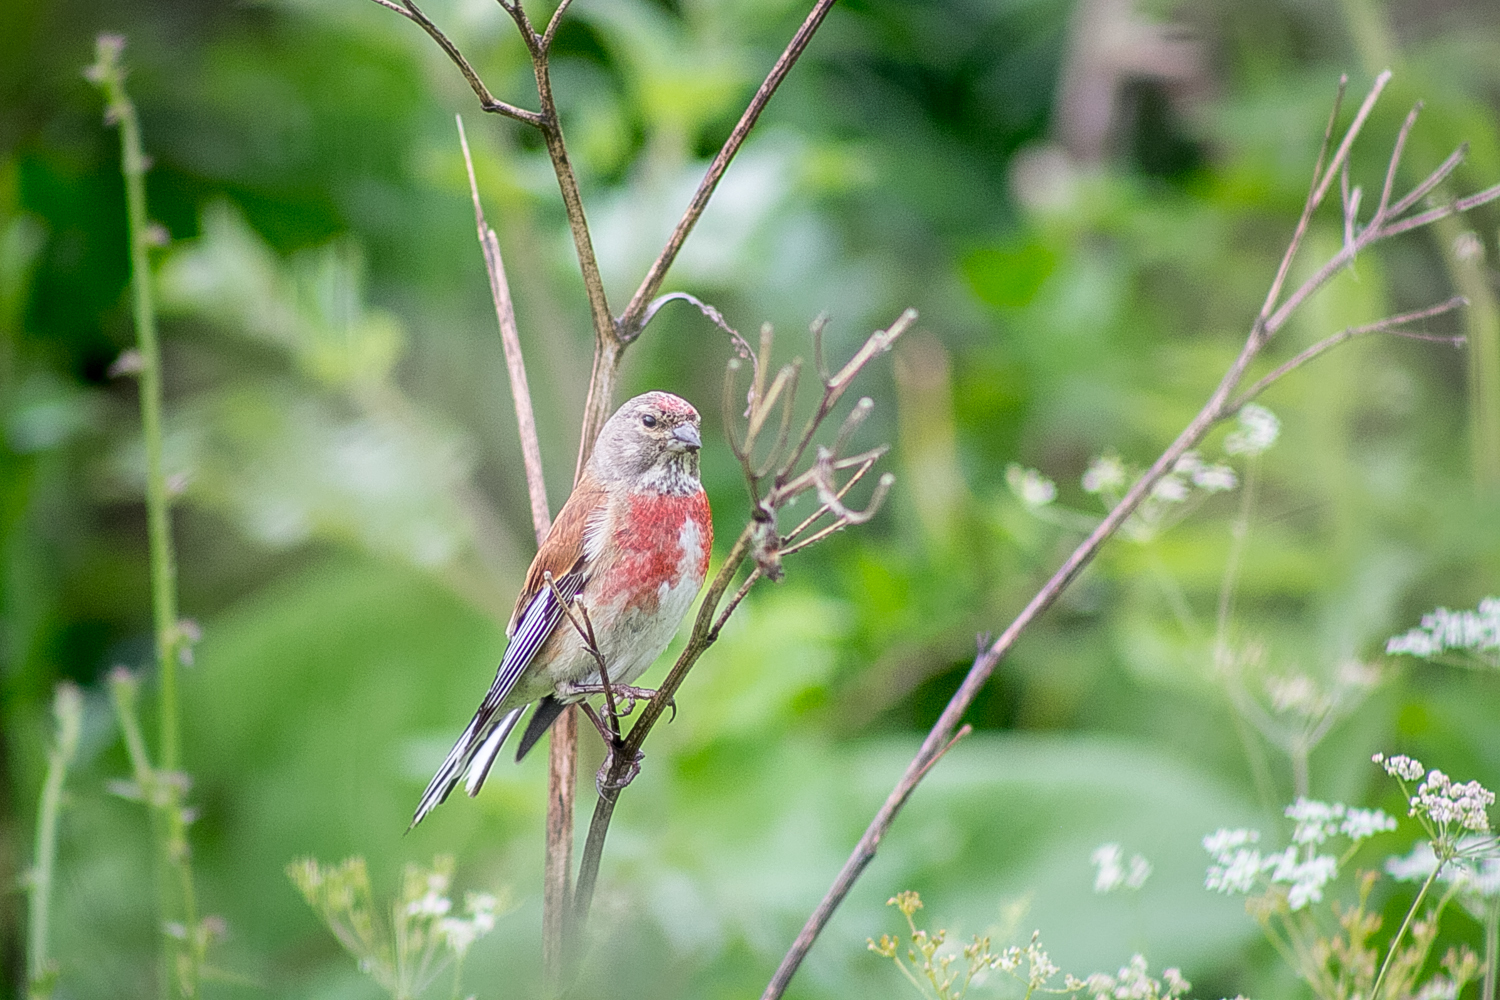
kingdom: Animalia
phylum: Chordata
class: Aves
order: Passeriformes
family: Fringillidae
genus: Linaria
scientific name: Linaria cannabina
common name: Common linnet
